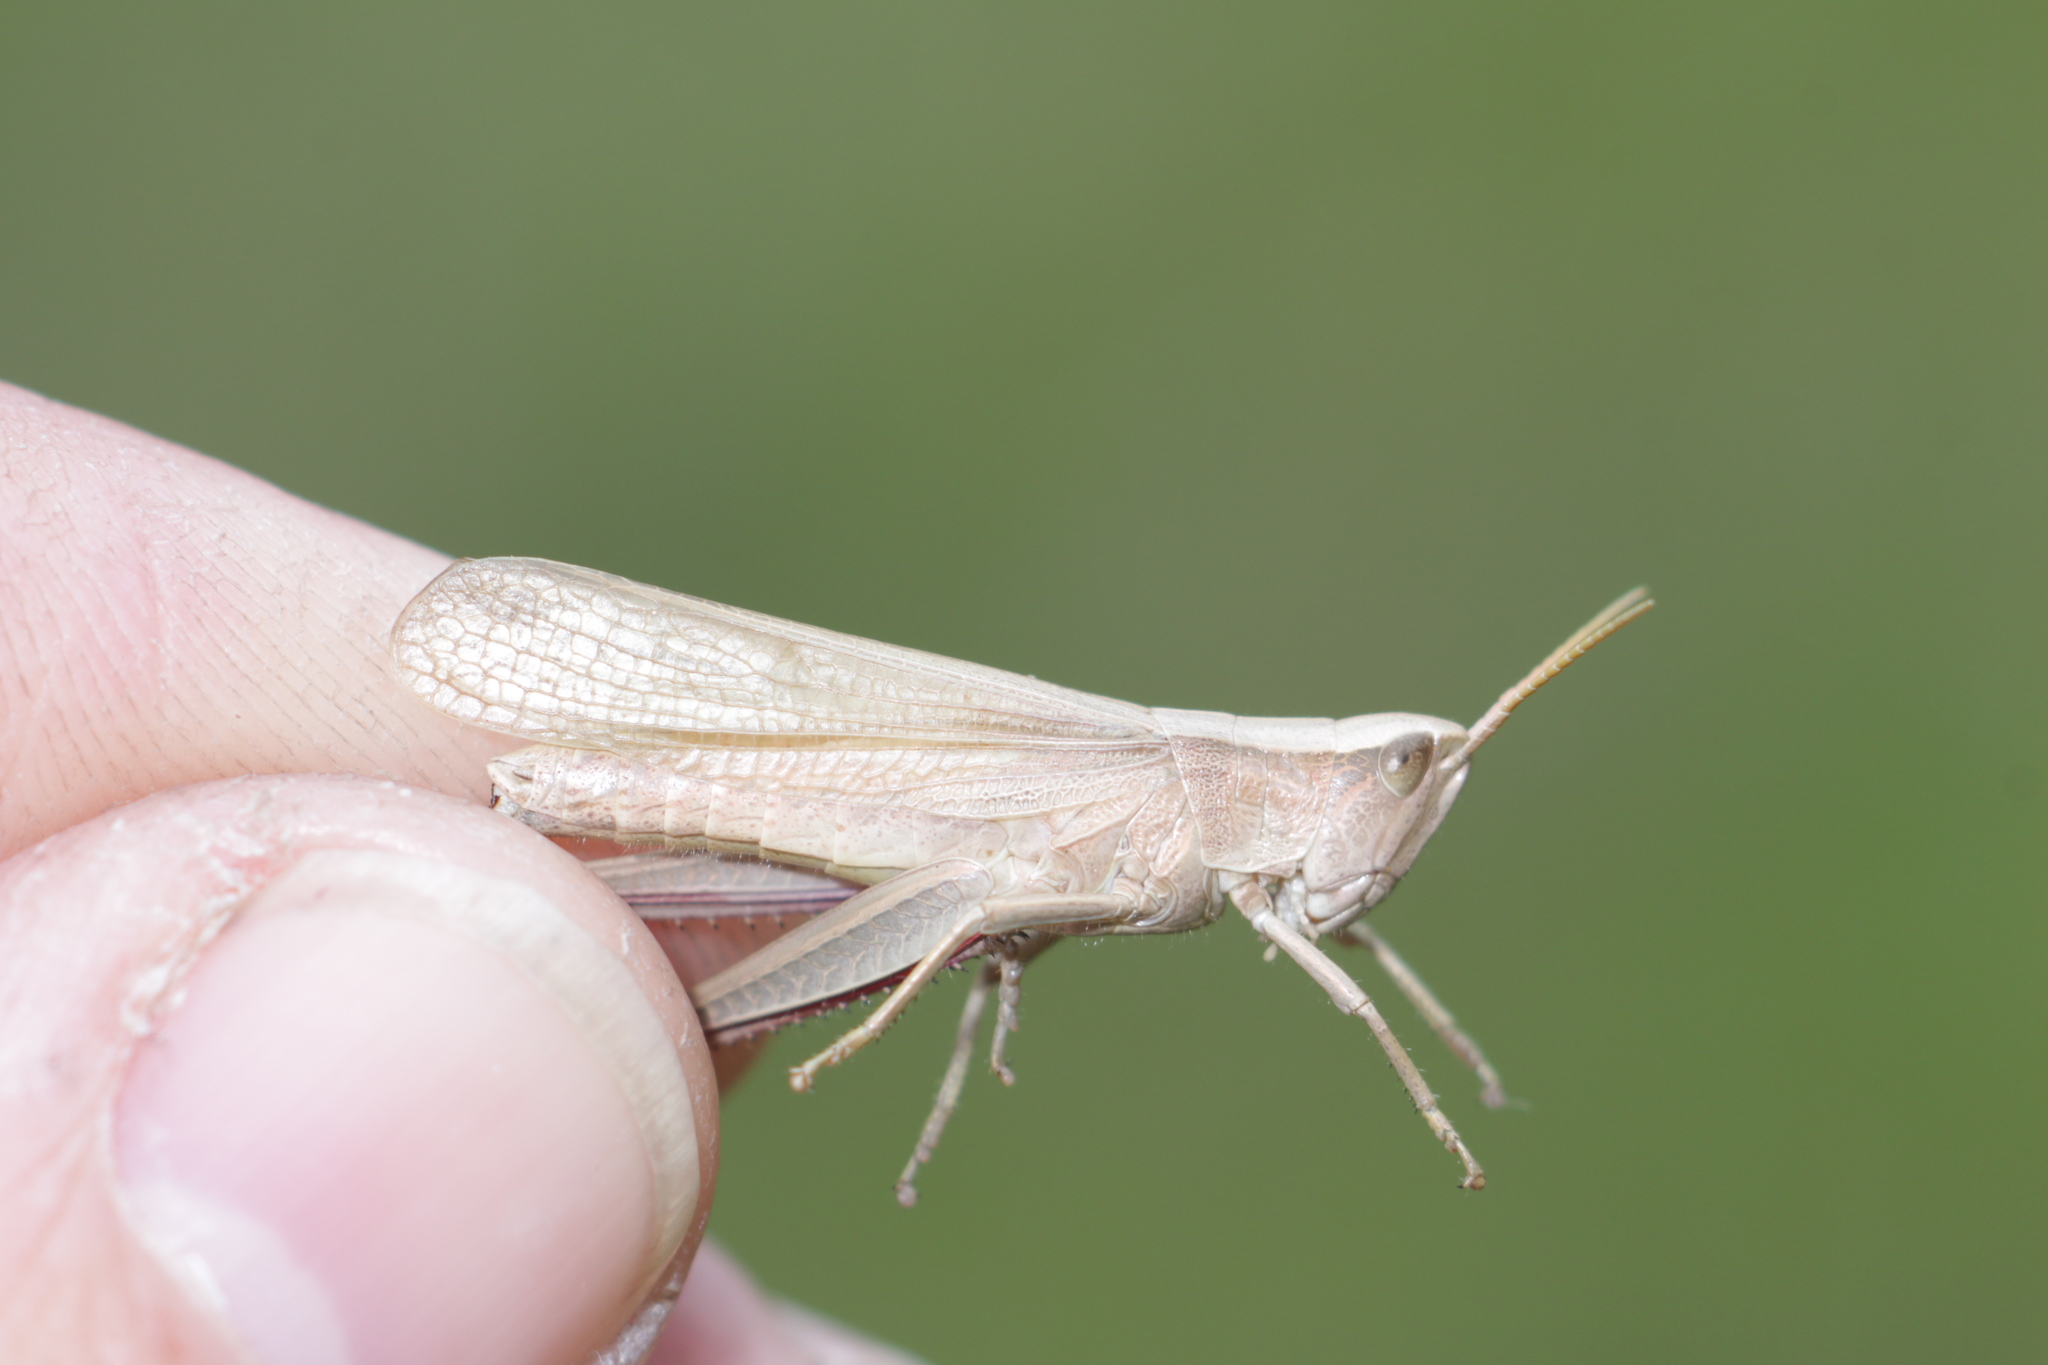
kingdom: Animalia
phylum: Arthropoda
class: Insecta
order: Orthoptera
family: Acrididae
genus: Chrysochraon
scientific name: Chrysochraon dispar
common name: Large gold grasshopper
